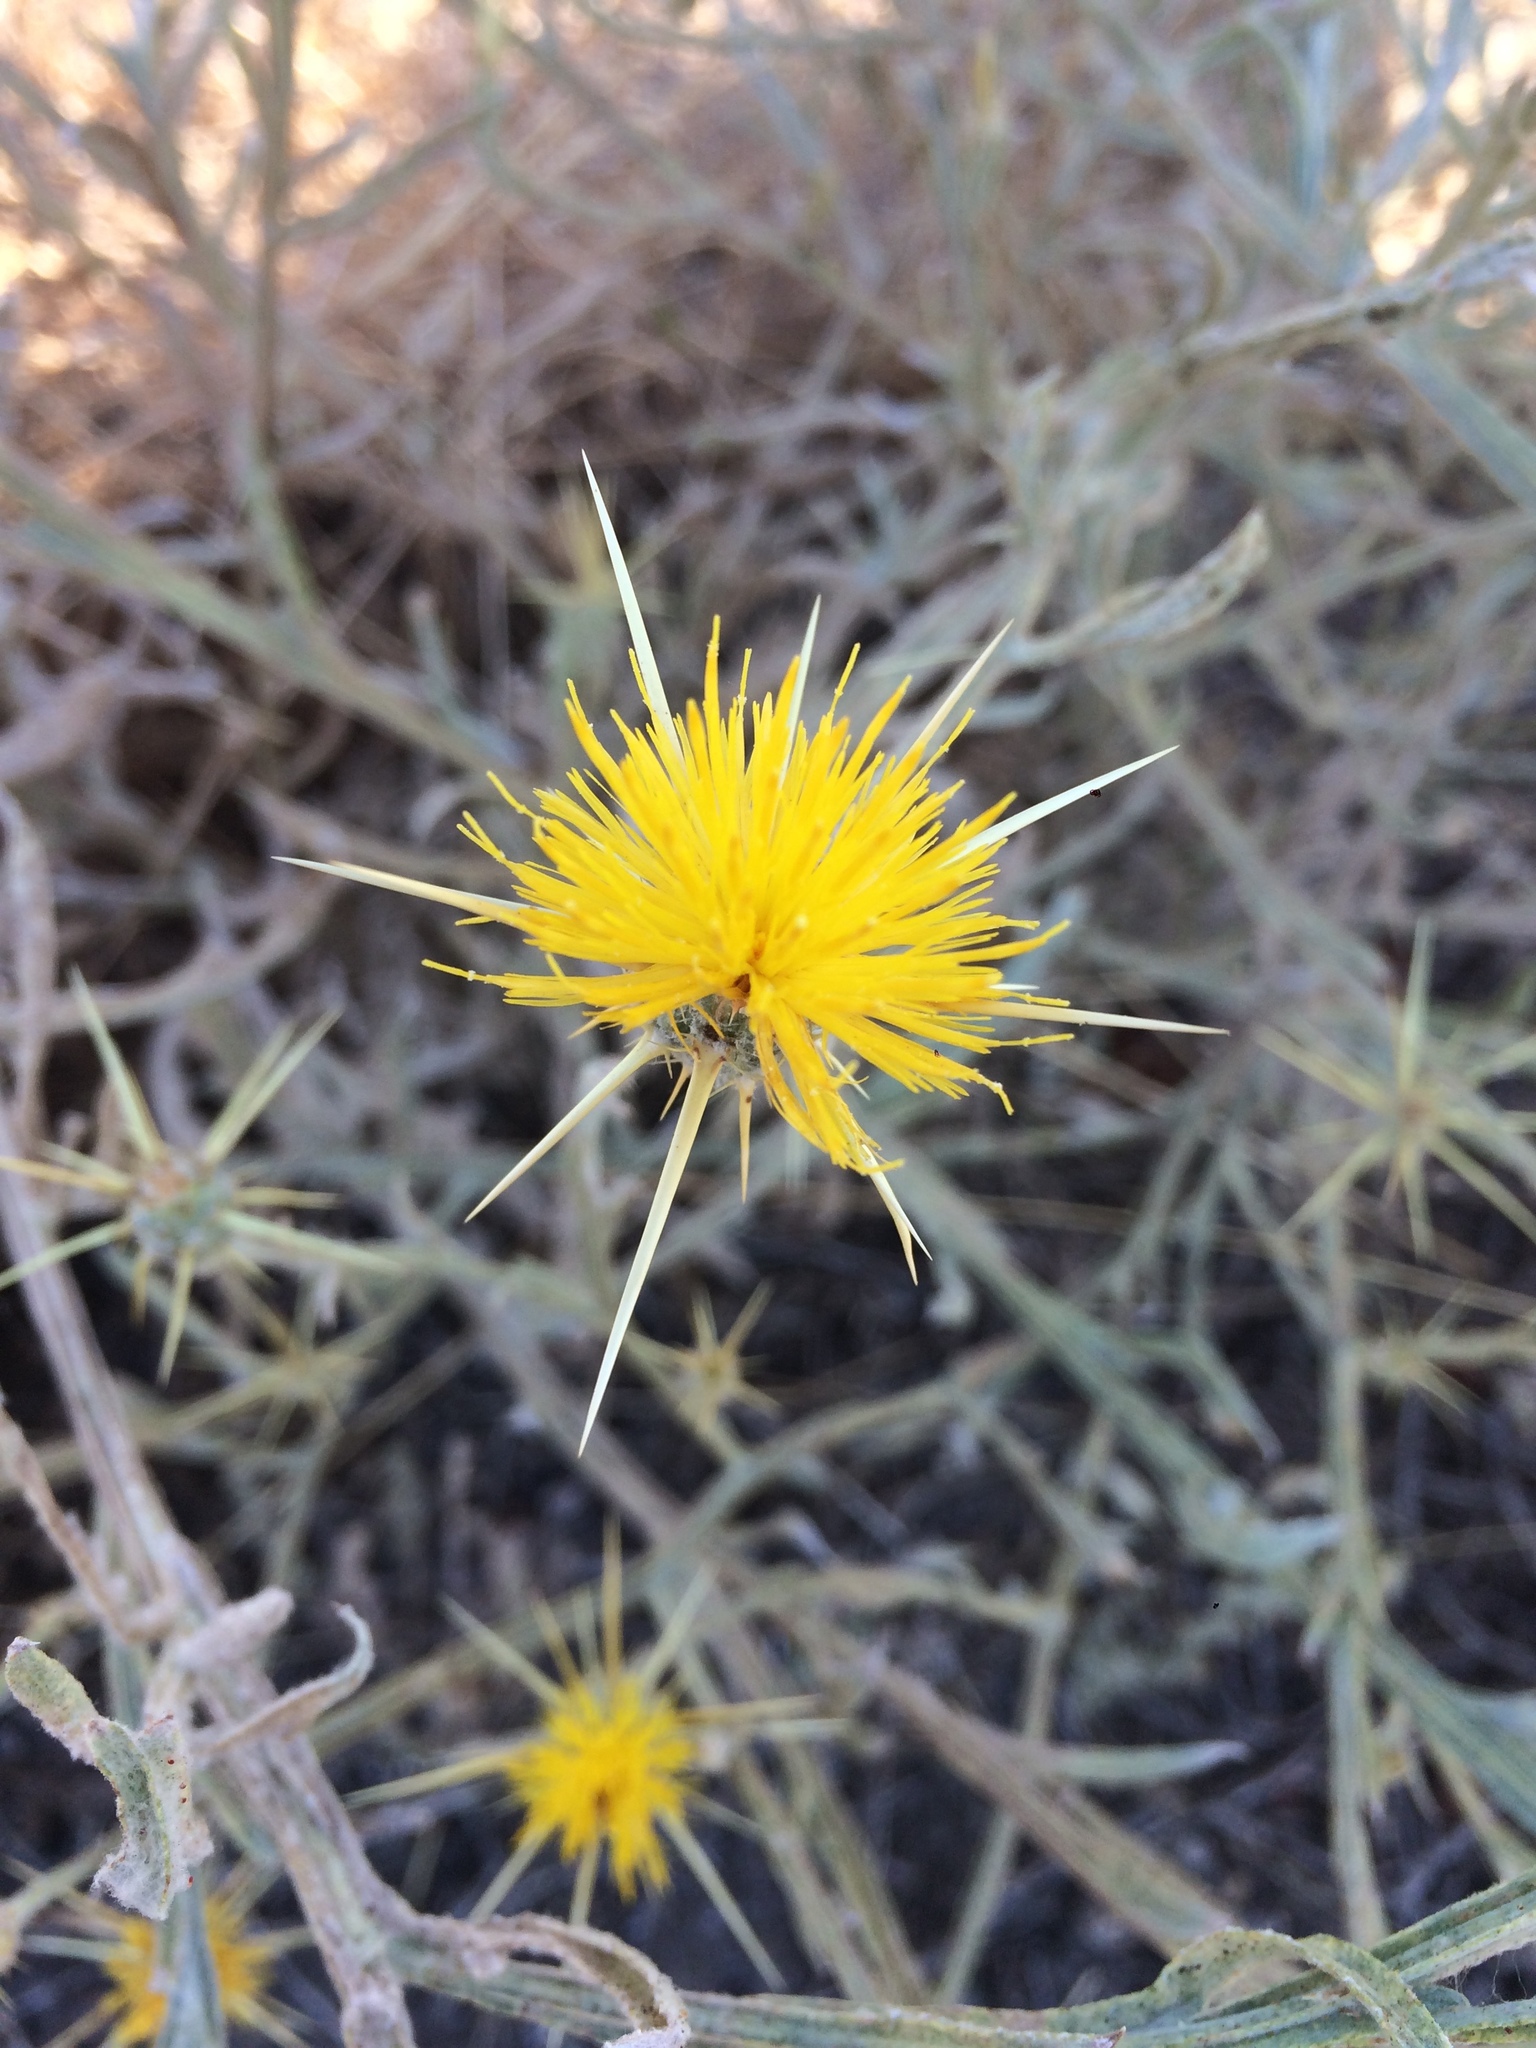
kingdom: Plantae
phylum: Tracheophyta
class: Magnoliopsida
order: Asterales
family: Asteraceae
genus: Centaurea
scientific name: Centaurea solstitialis
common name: Yellow star-thistle
